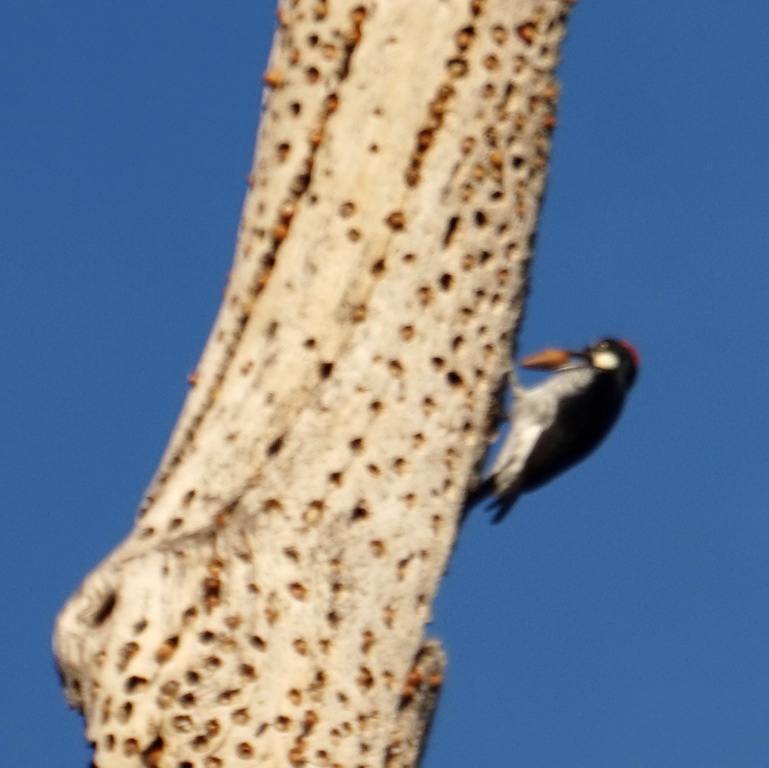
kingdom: Animalia
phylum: Chordata
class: Aves
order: Piciformes
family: Picidae
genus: Melanerpes
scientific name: Melanerpes formicivorus
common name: Acorn woodpecker
